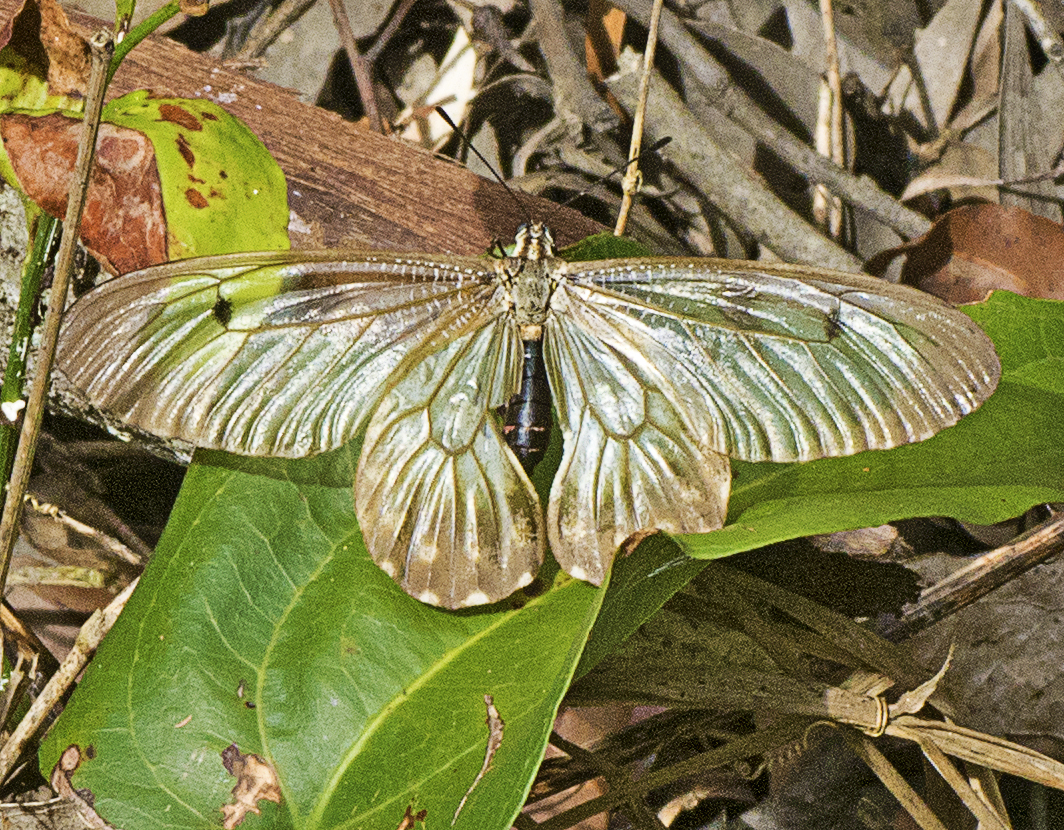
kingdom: Animalia
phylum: Arthropoda
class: Insecta
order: Lepidoptera
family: Papilionidae
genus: Cressida
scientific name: Cressida cressida
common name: Big greasy
